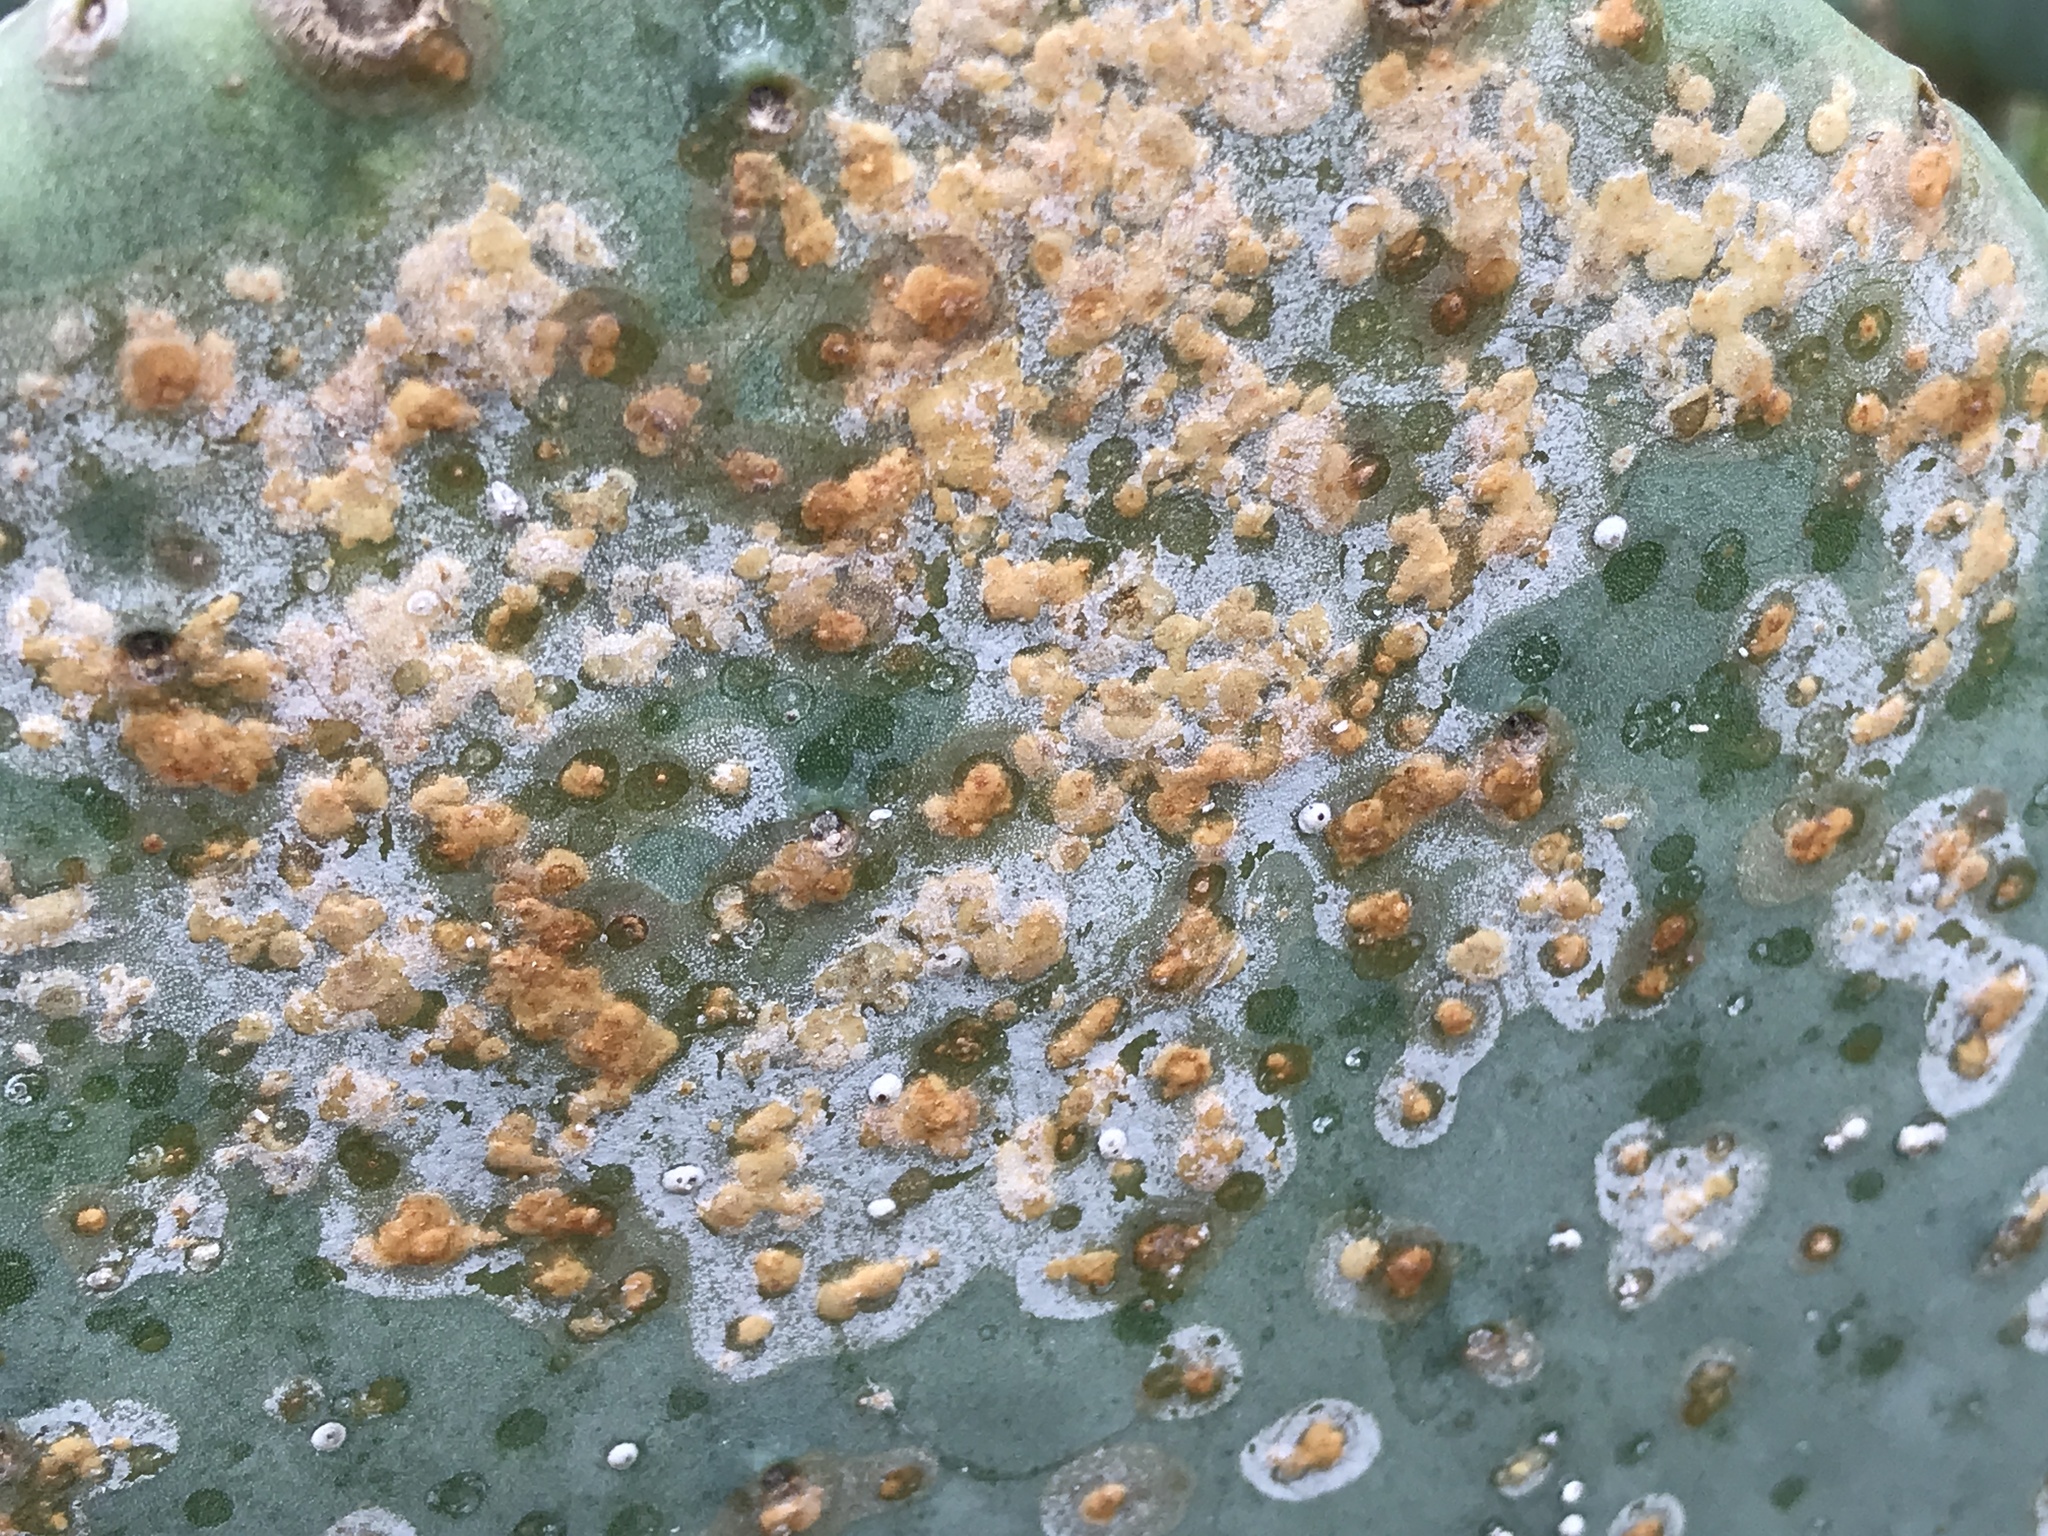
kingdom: Animalia
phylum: Arthropoda
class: Insecta
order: Hemiptera
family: Diaspididae
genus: Diaspis
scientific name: Diaspis echinocacti
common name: Cactus scale
